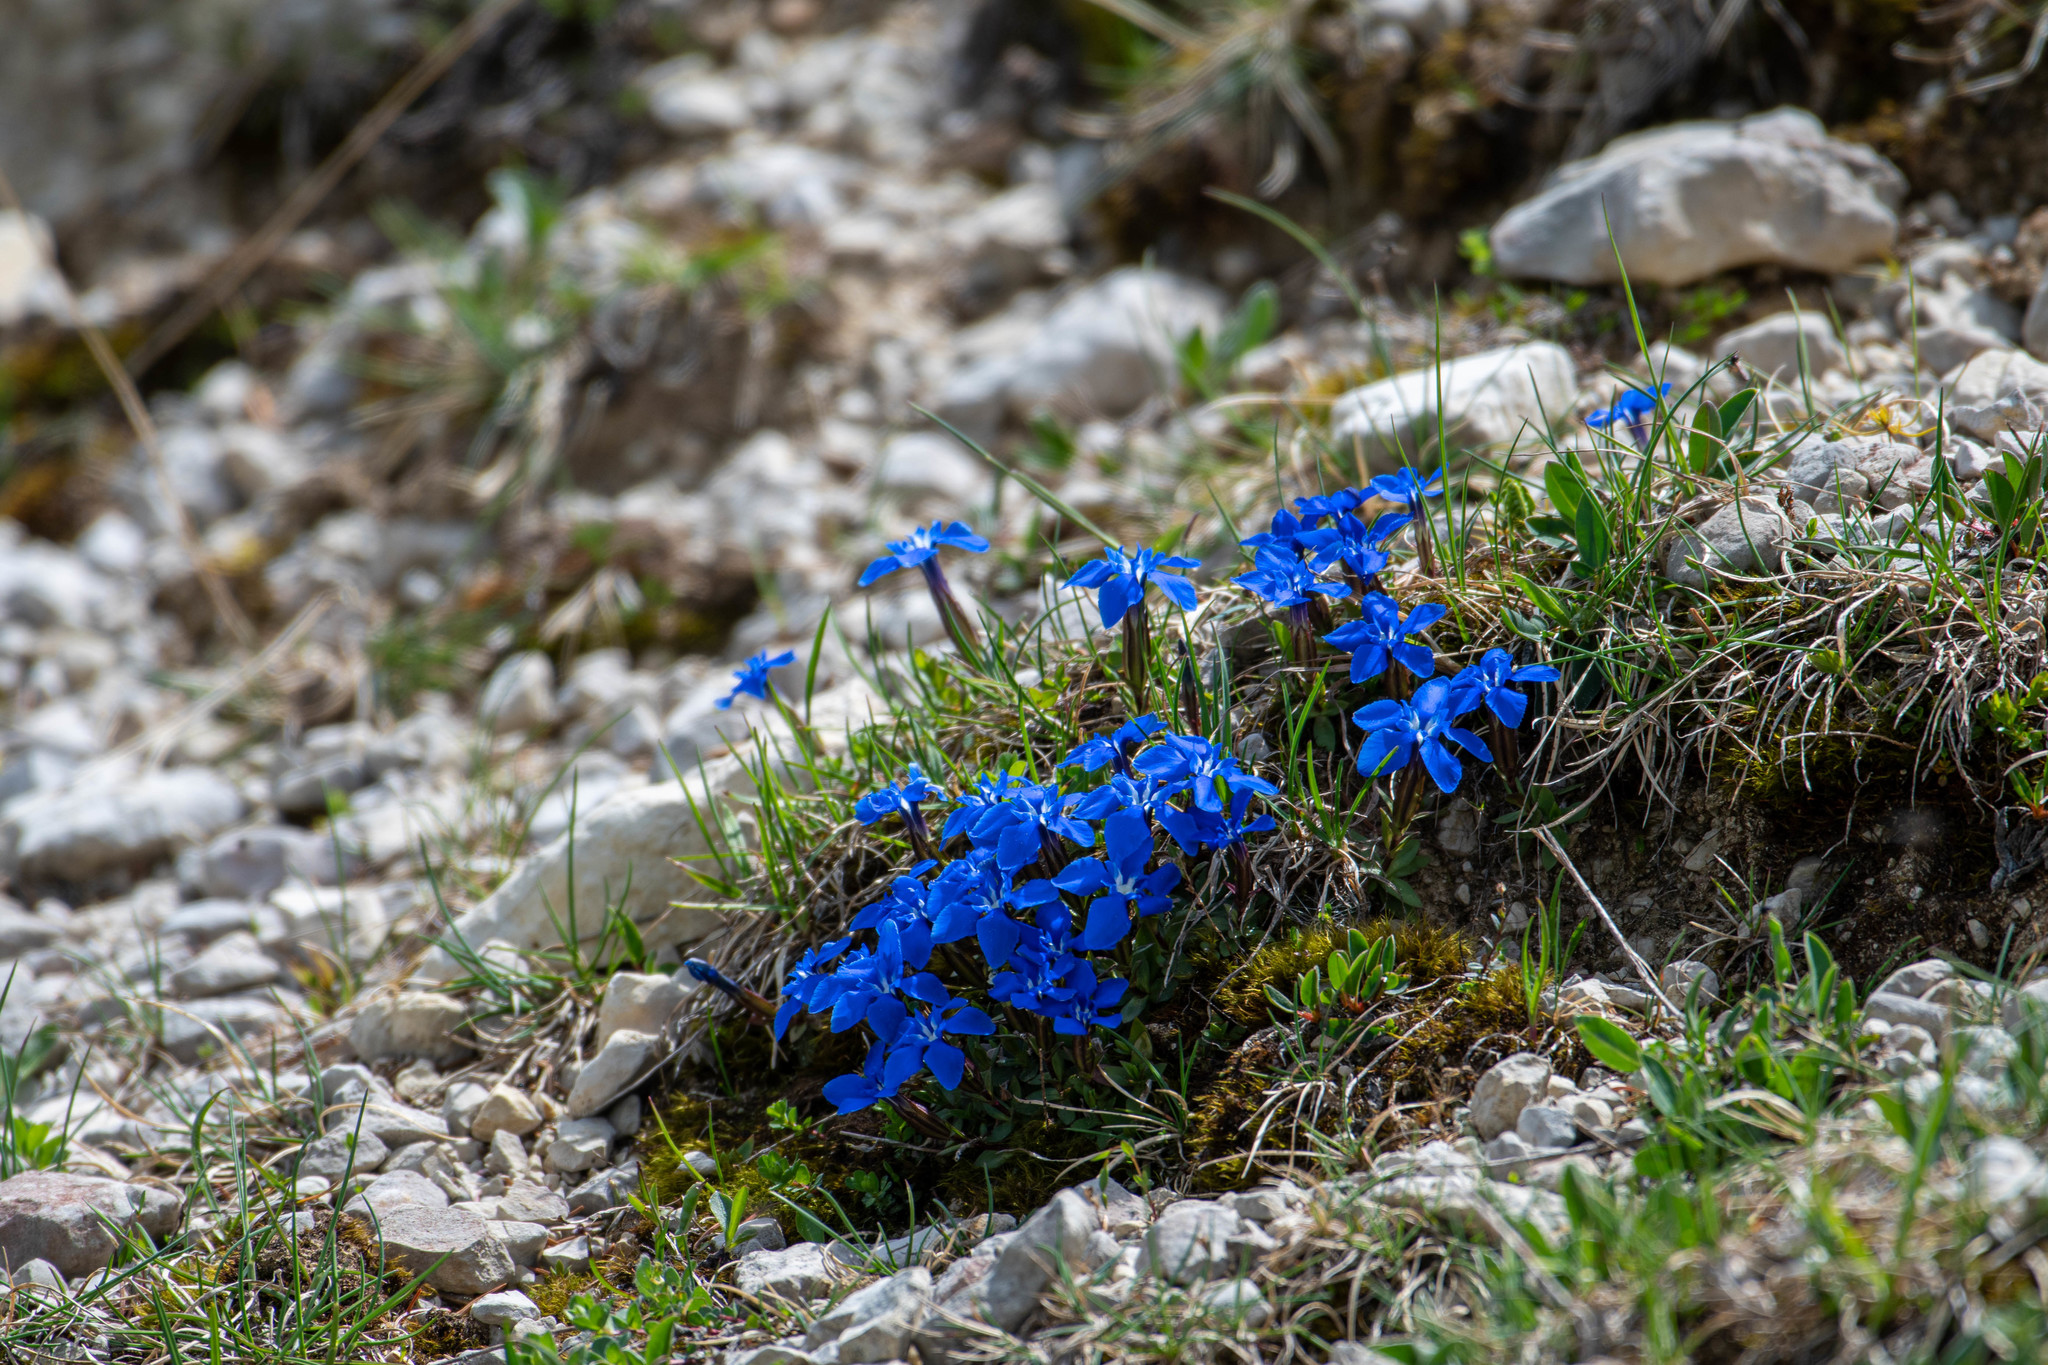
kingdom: Plantae
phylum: Tracheophyta
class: Magnoliopsida
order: Gentianales
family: Gentianaceae
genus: Gentiana
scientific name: Gentiana verna
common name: Spring gentian
